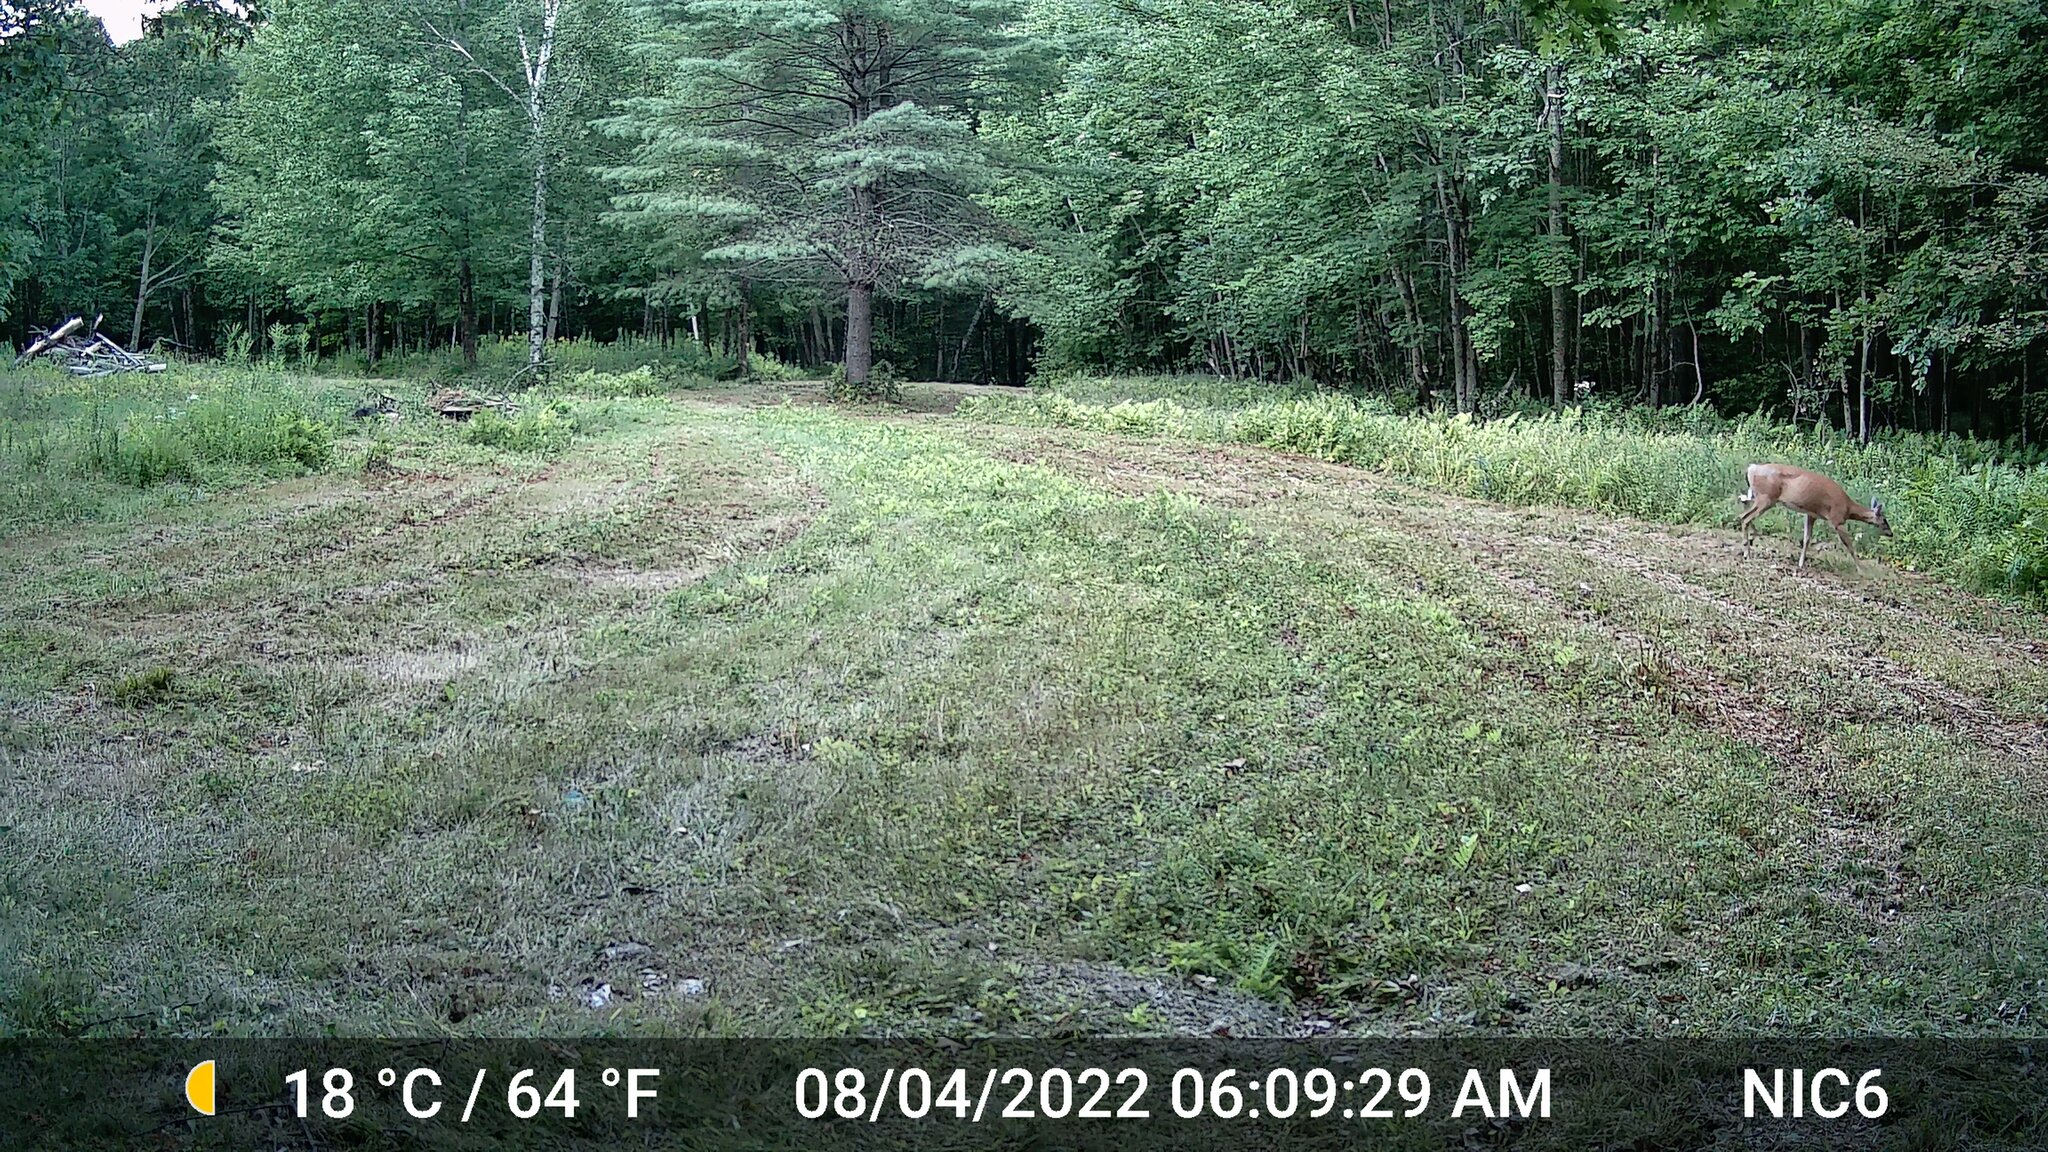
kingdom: Animalia
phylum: Chordata
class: Mammalia
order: Artiodactyla
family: Cervidae
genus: Odocoileus
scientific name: Odocoileus virginianus
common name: White-tailed deer
